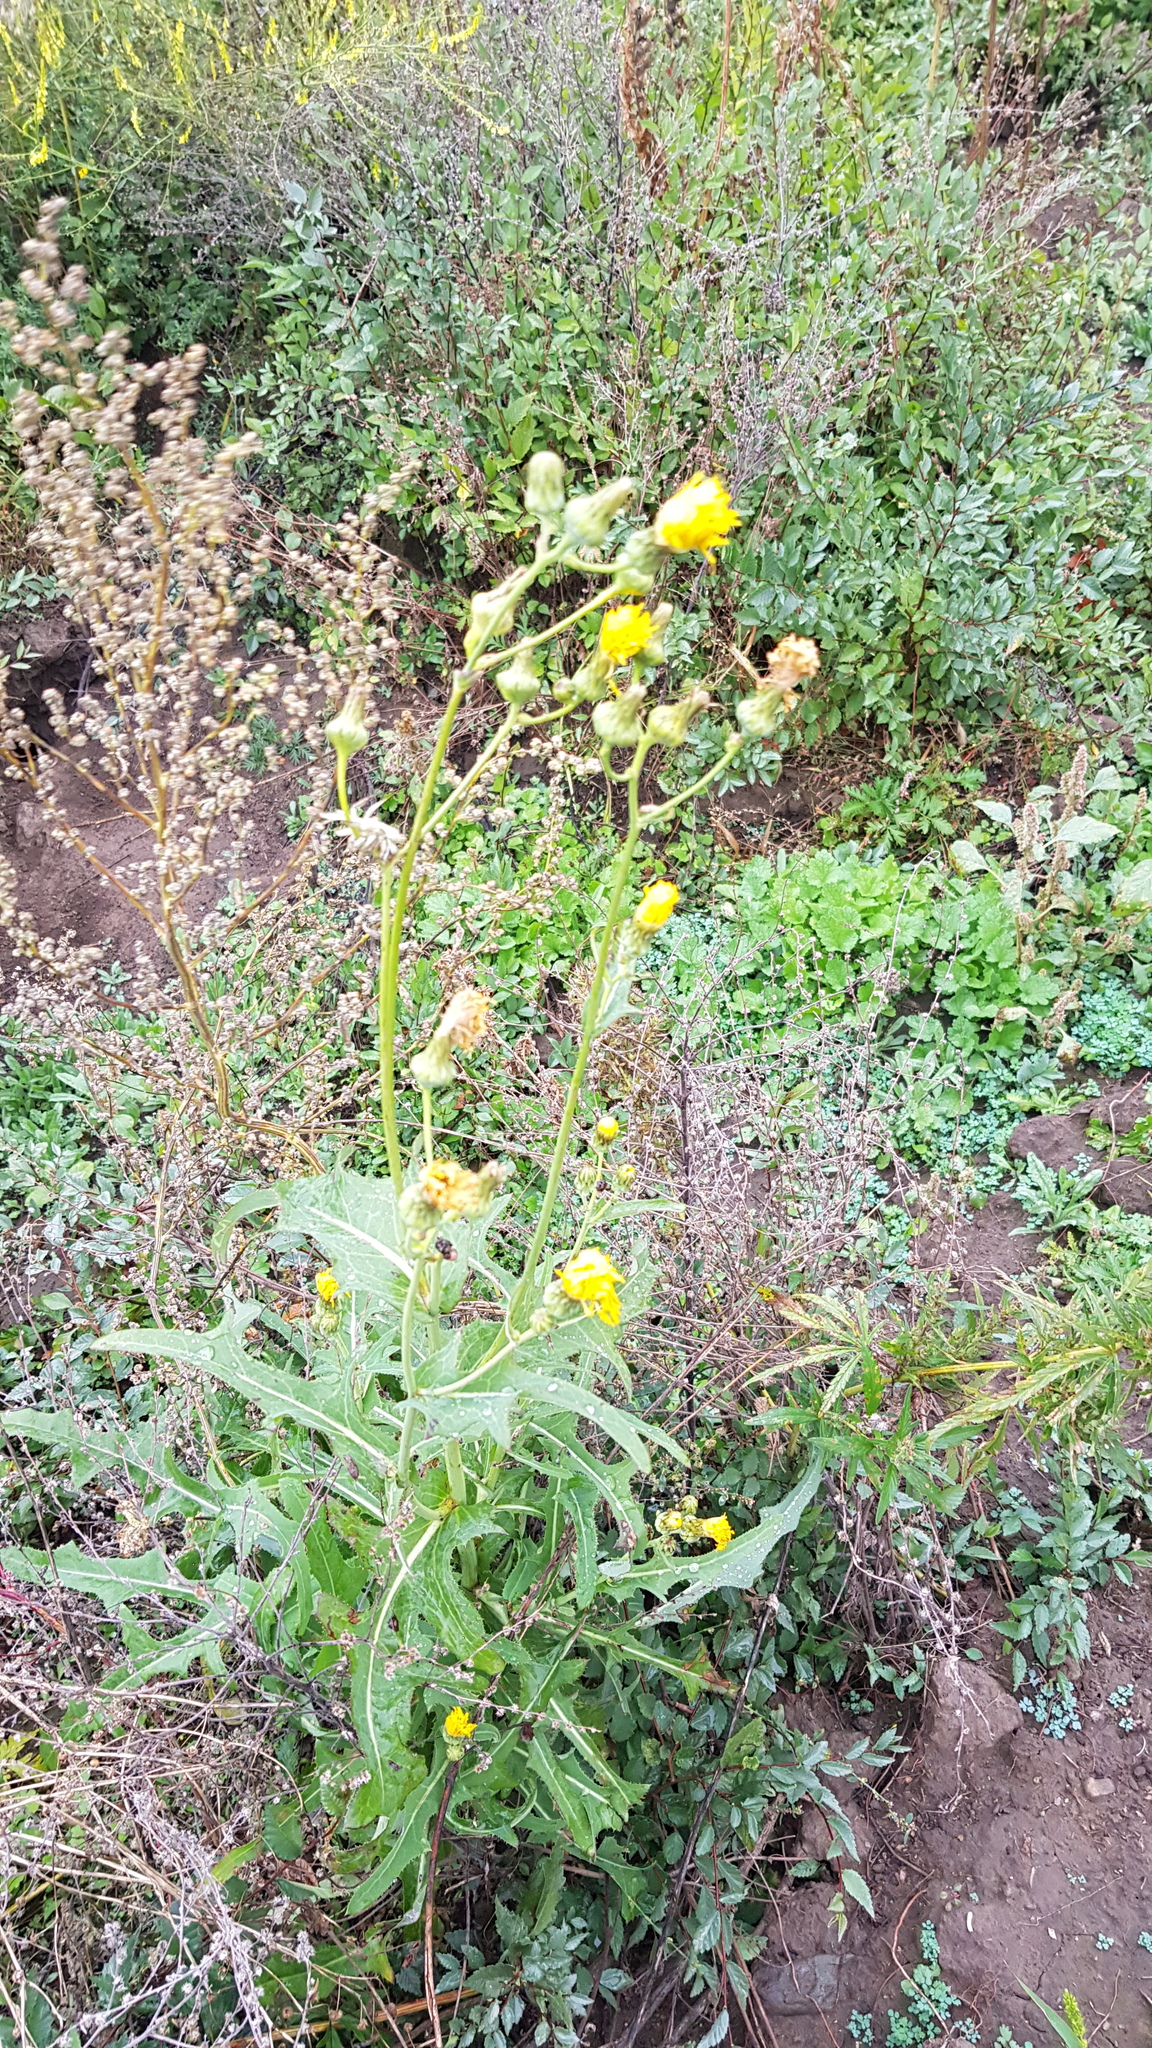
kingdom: Plantae
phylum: Tracheophyta
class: Magnoliopsida
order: Asterales
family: Asteraceae
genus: Sonchus
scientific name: Sonchus arvensis
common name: Perennial sow-thistle
